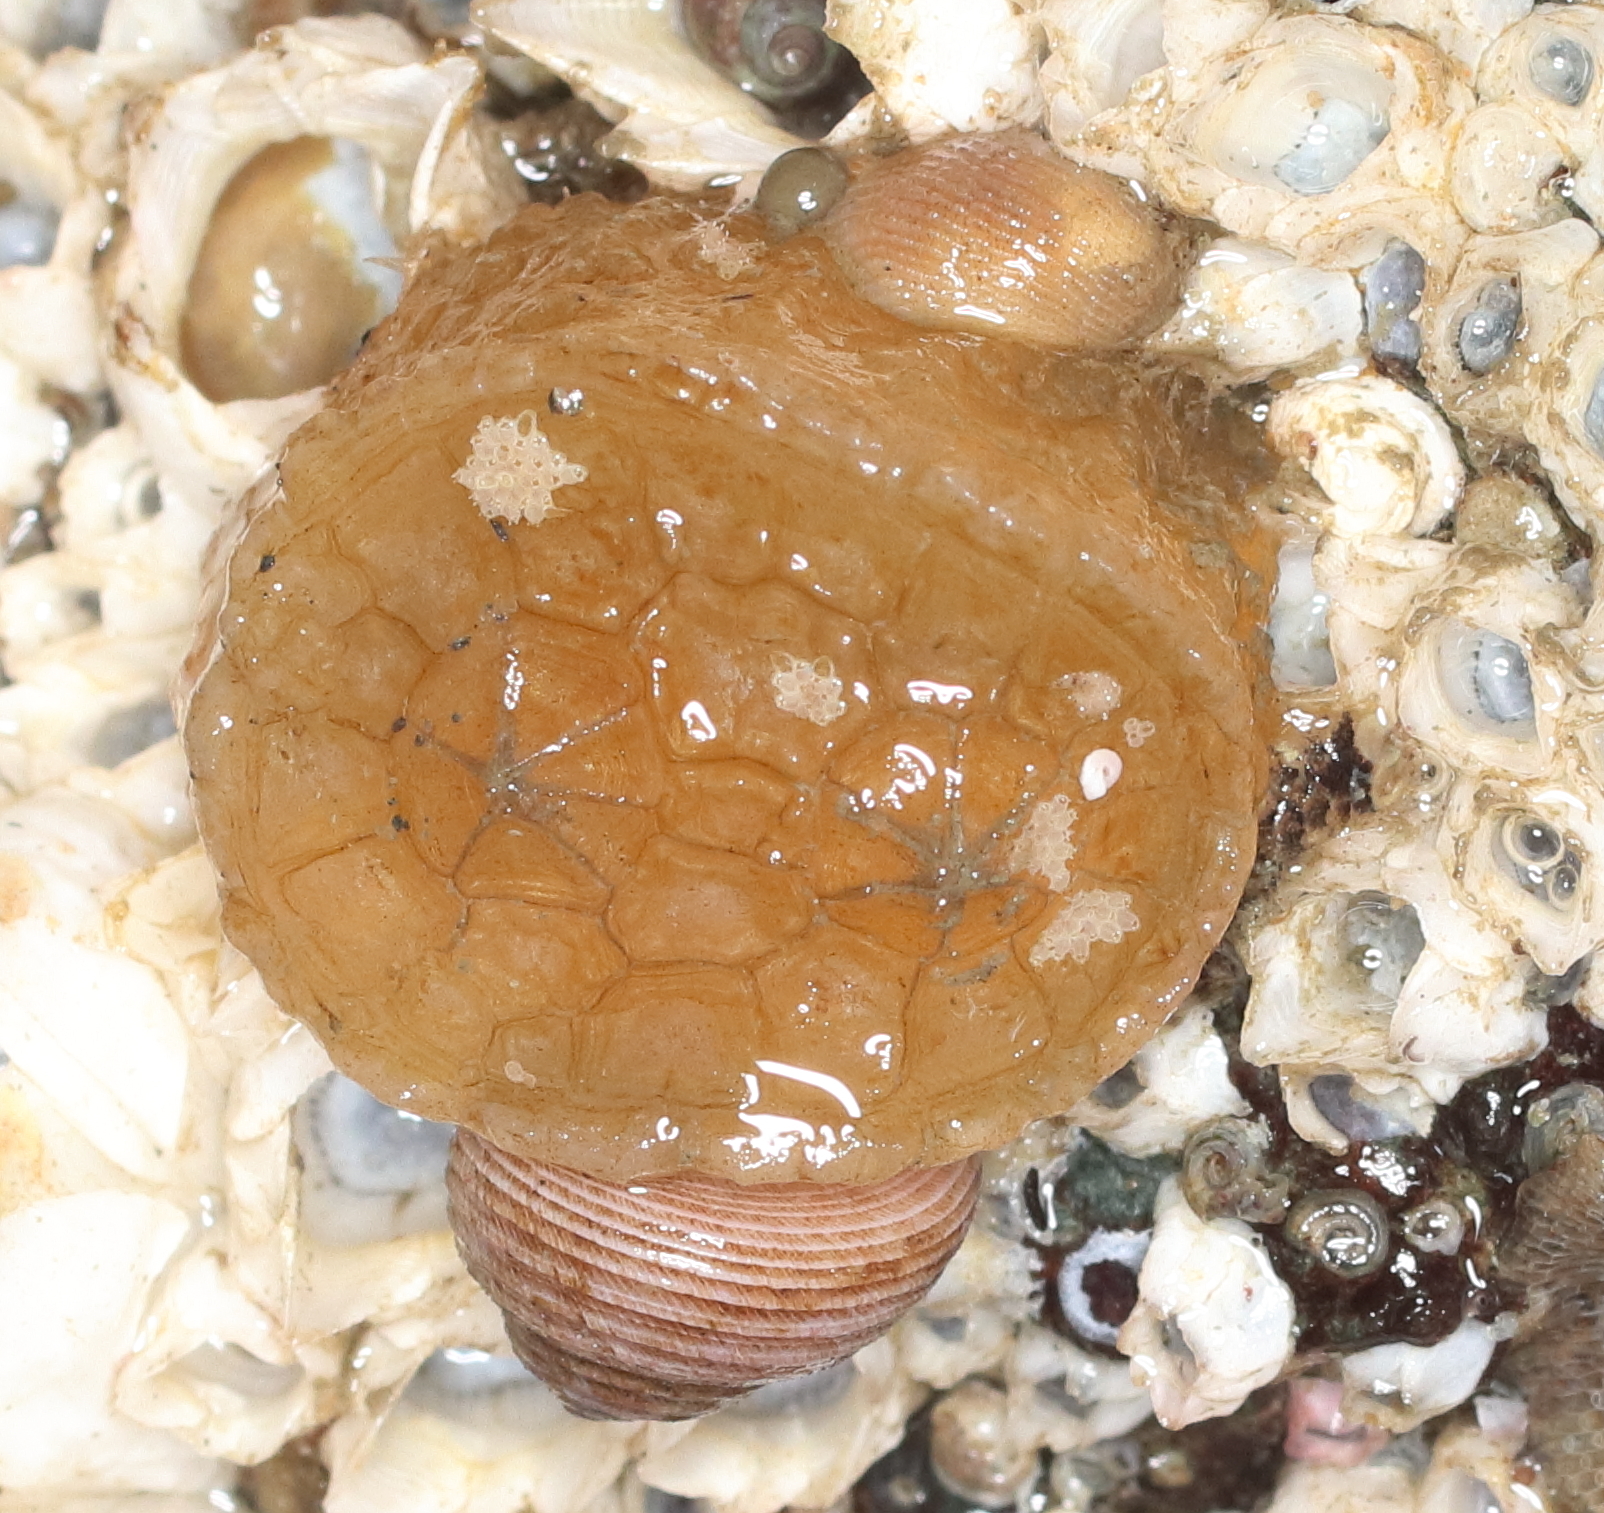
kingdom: Animalia
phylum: Chordata
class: Ascidiacea
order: Phlebobranchia
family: Corellidae
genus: Chelyosoma
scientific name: Chelyosoma productum
